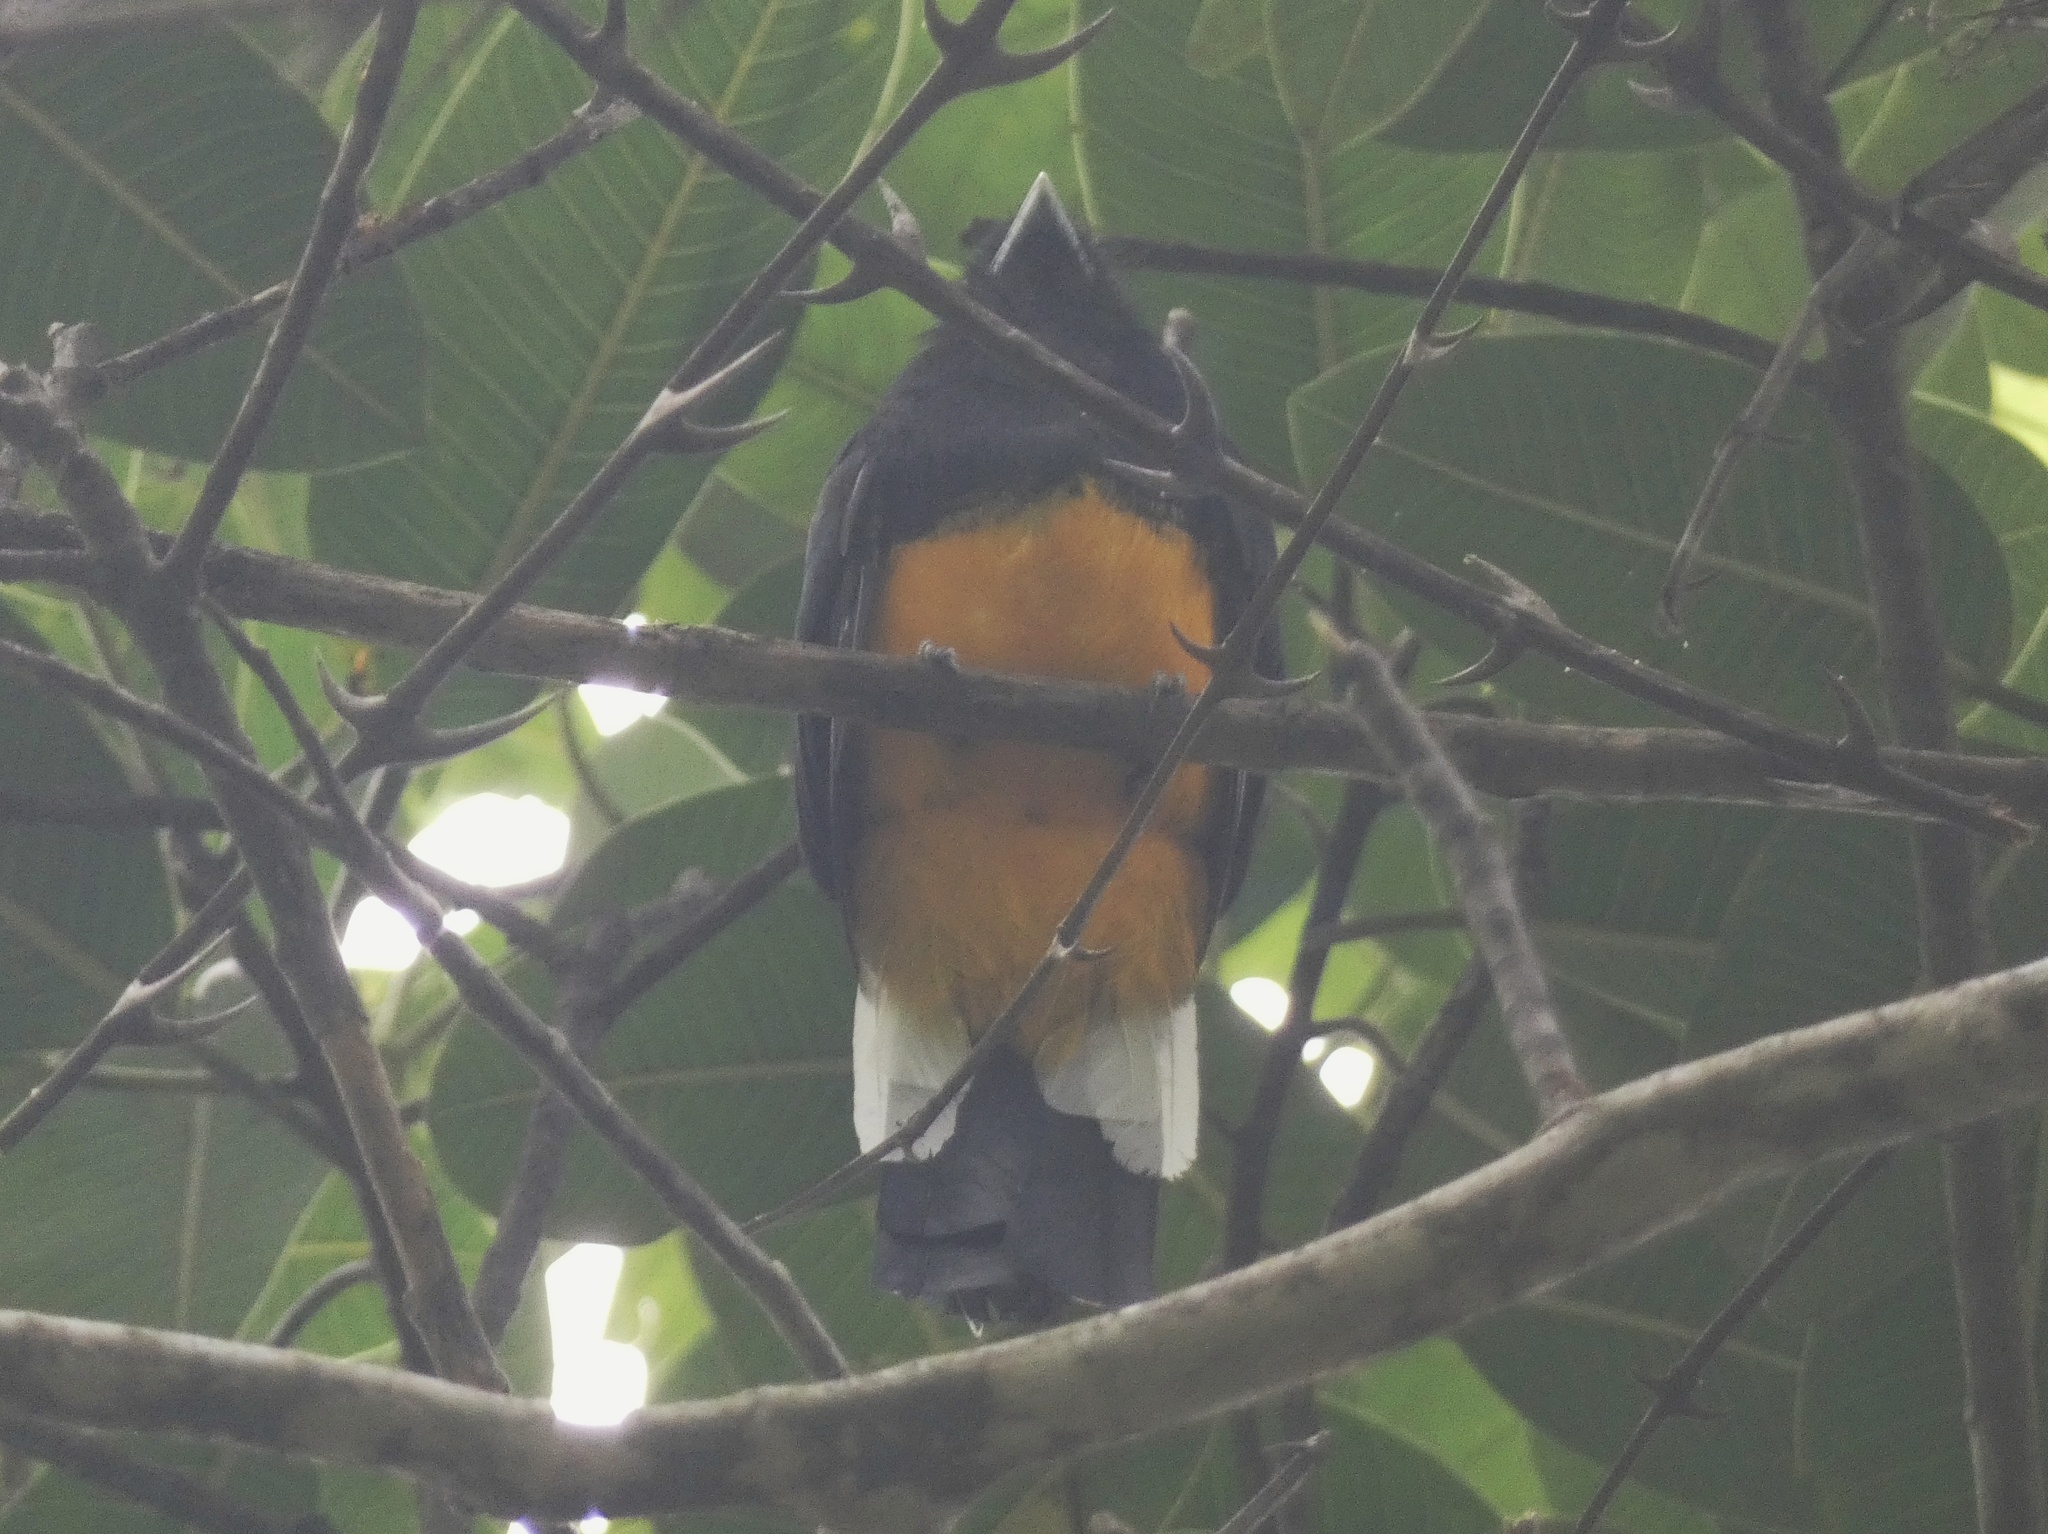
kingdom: Animalia
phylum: Chordata
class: Aves
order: Trogoniformes
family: Trogonidae
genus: Trogon
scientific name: Trogon chionurus
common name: White-tailed trogon
